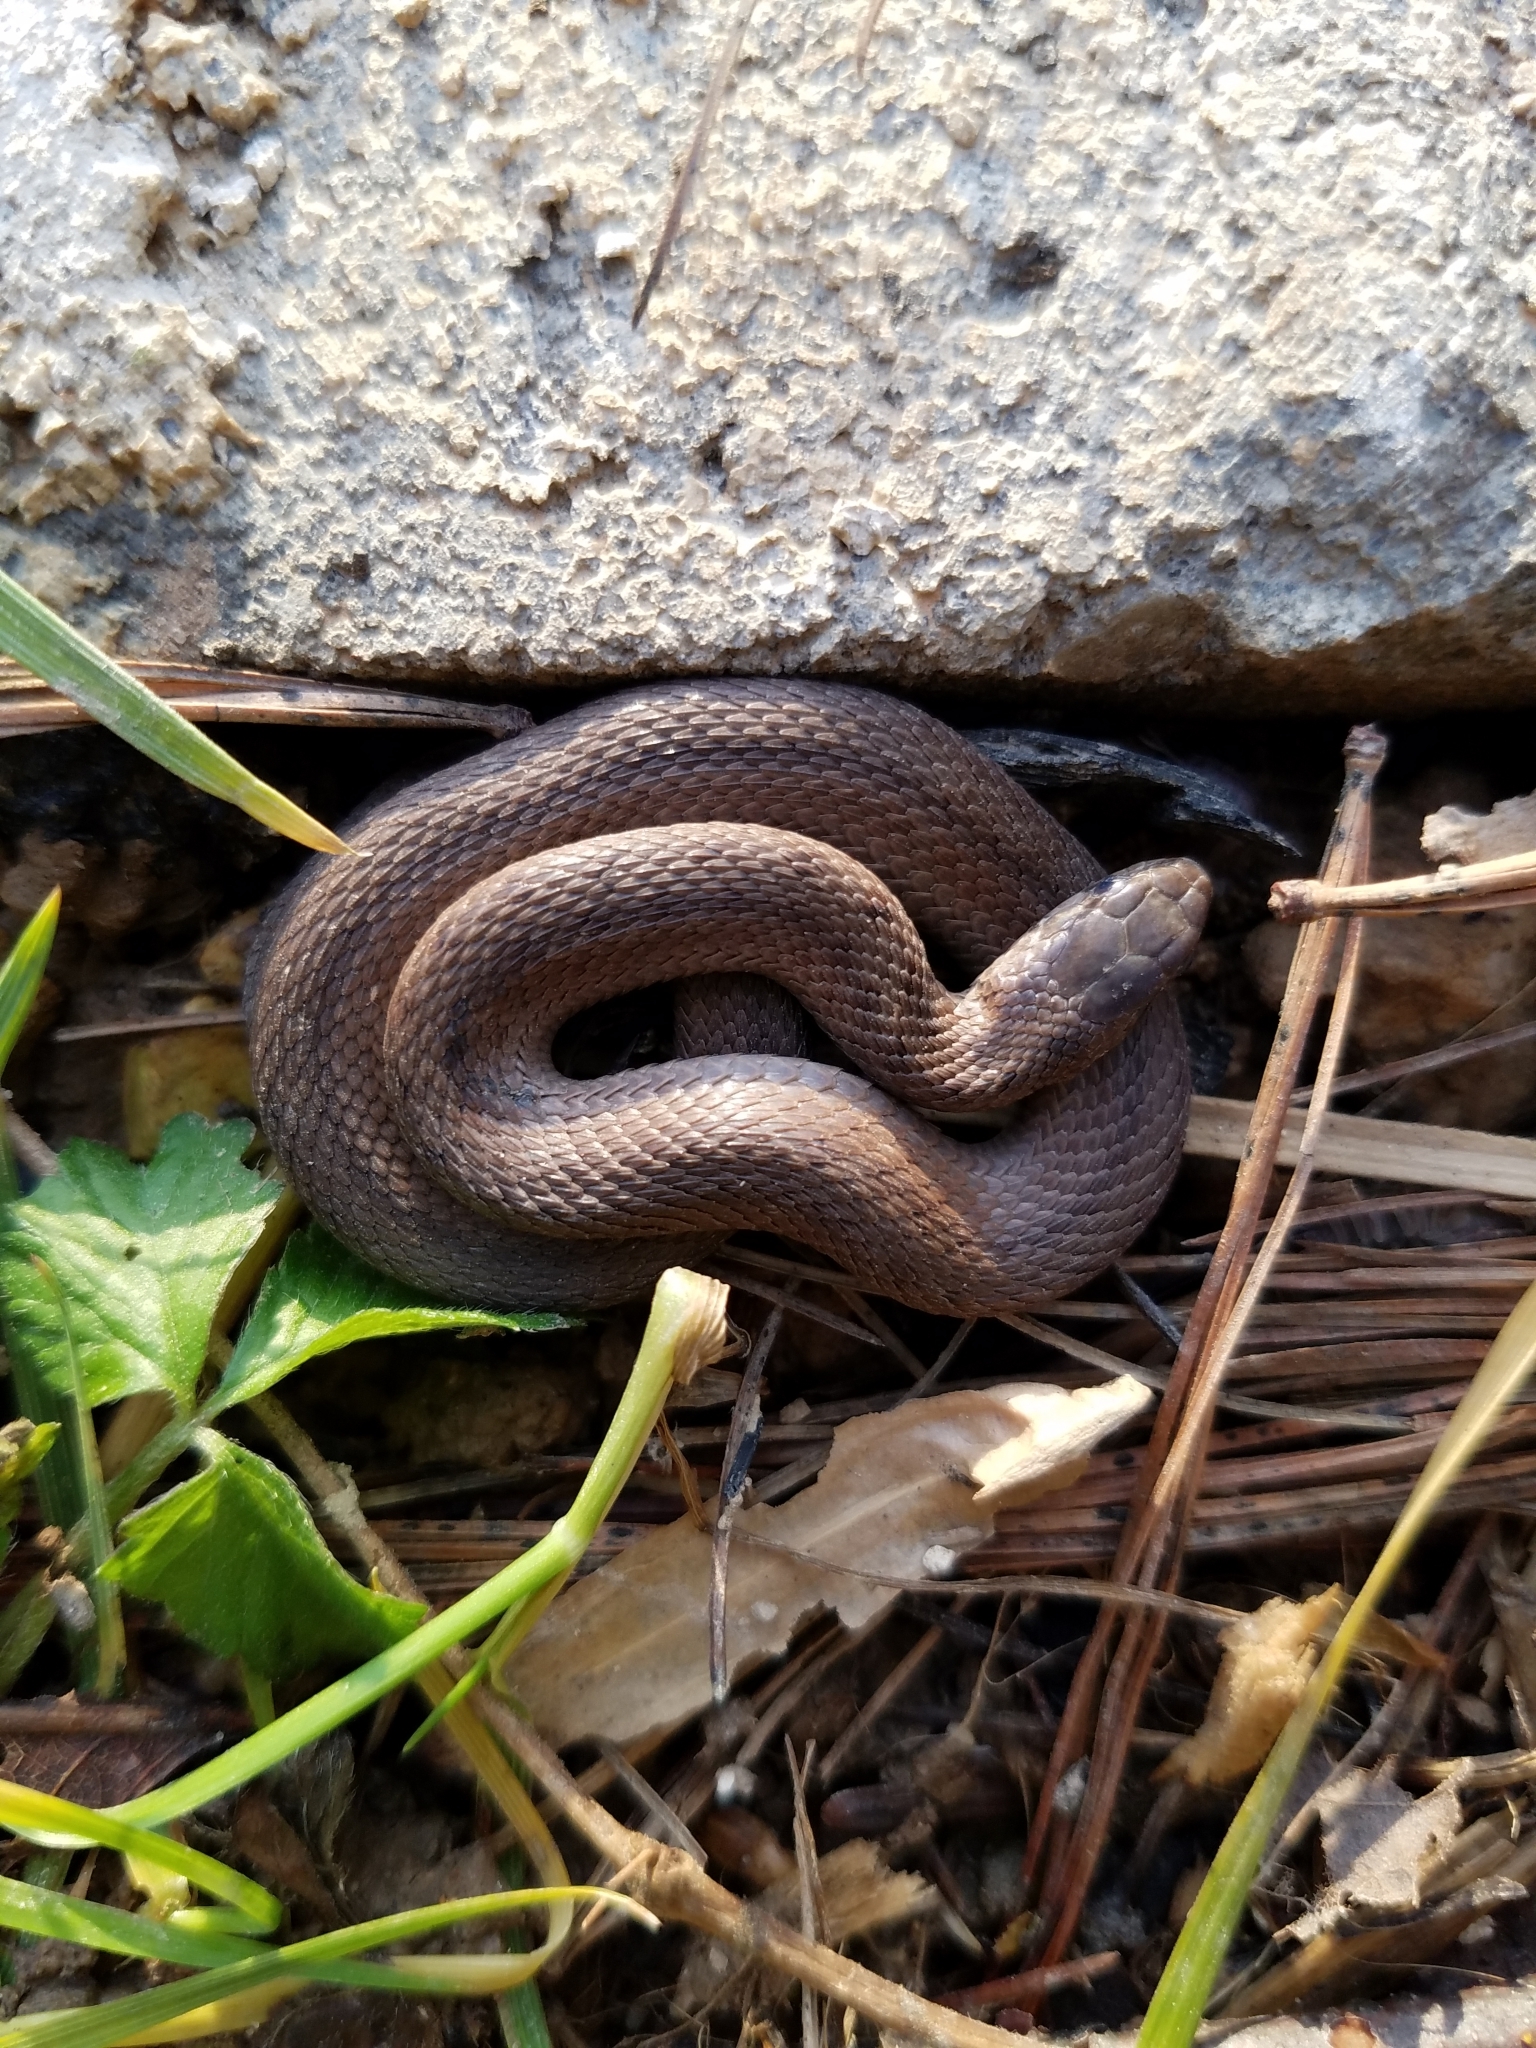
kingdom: Animalia
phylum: Chordata
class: Squamata
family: Colubridae
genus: Storeria
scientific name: Storeria dekayi
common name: (dekay’s) brown snake
